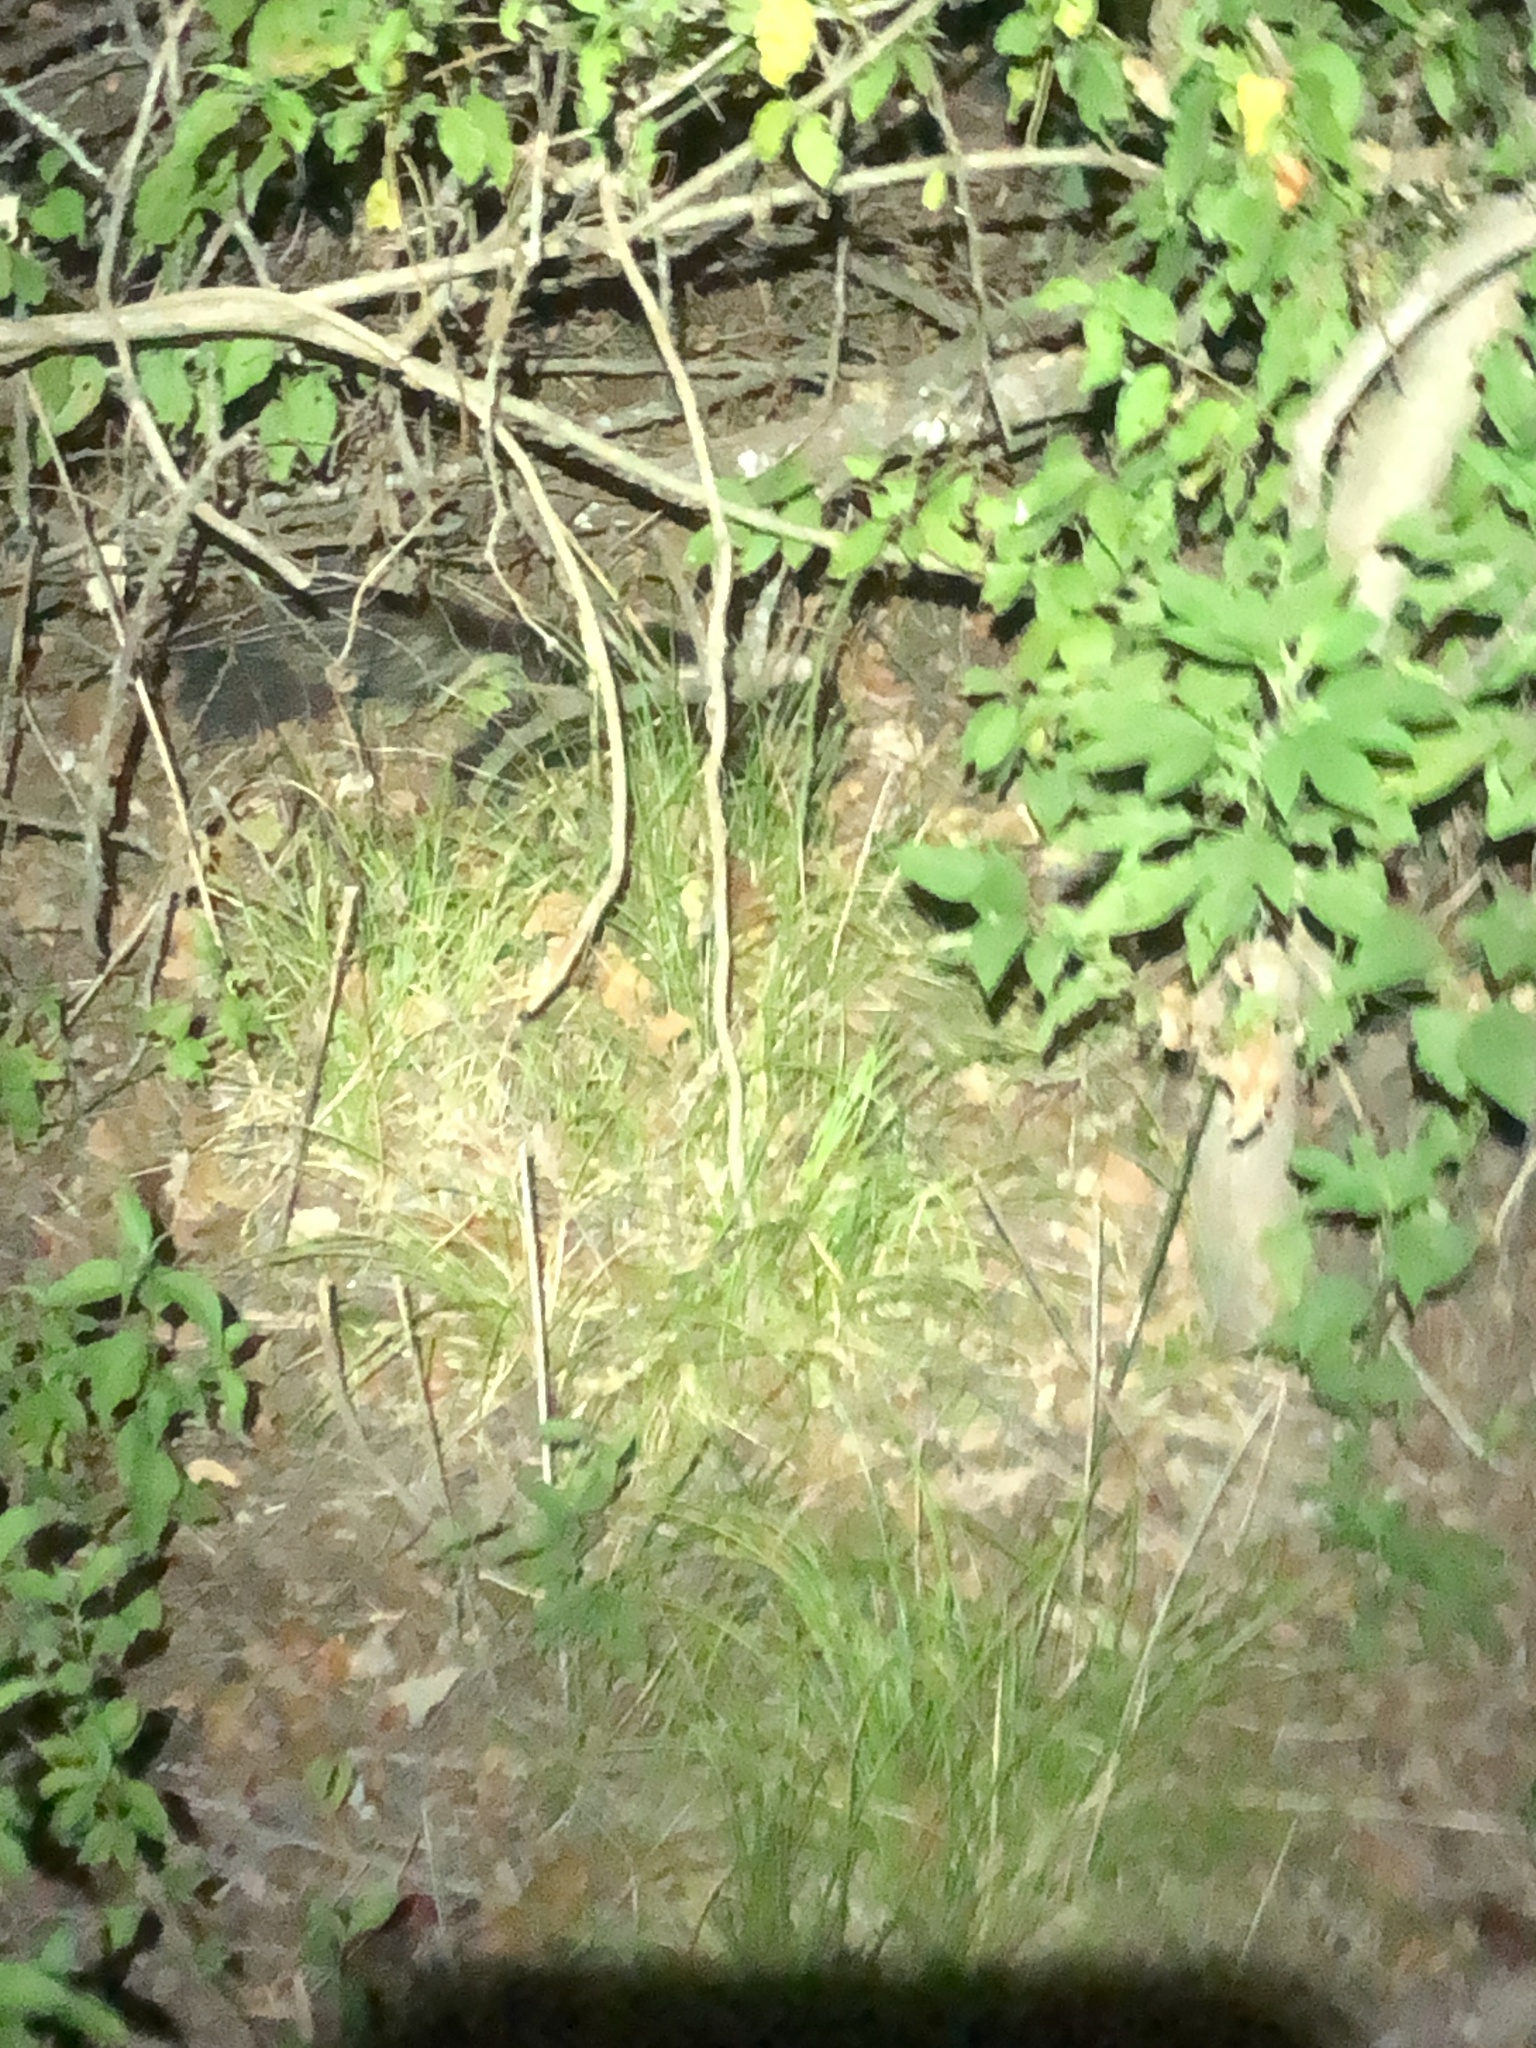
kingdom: Animalia
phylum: Chordata
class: Mammalia
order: Carnivora
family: Mephitidae
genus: Mephitis
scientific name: Mephitis mephitis
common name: Striped skunk
